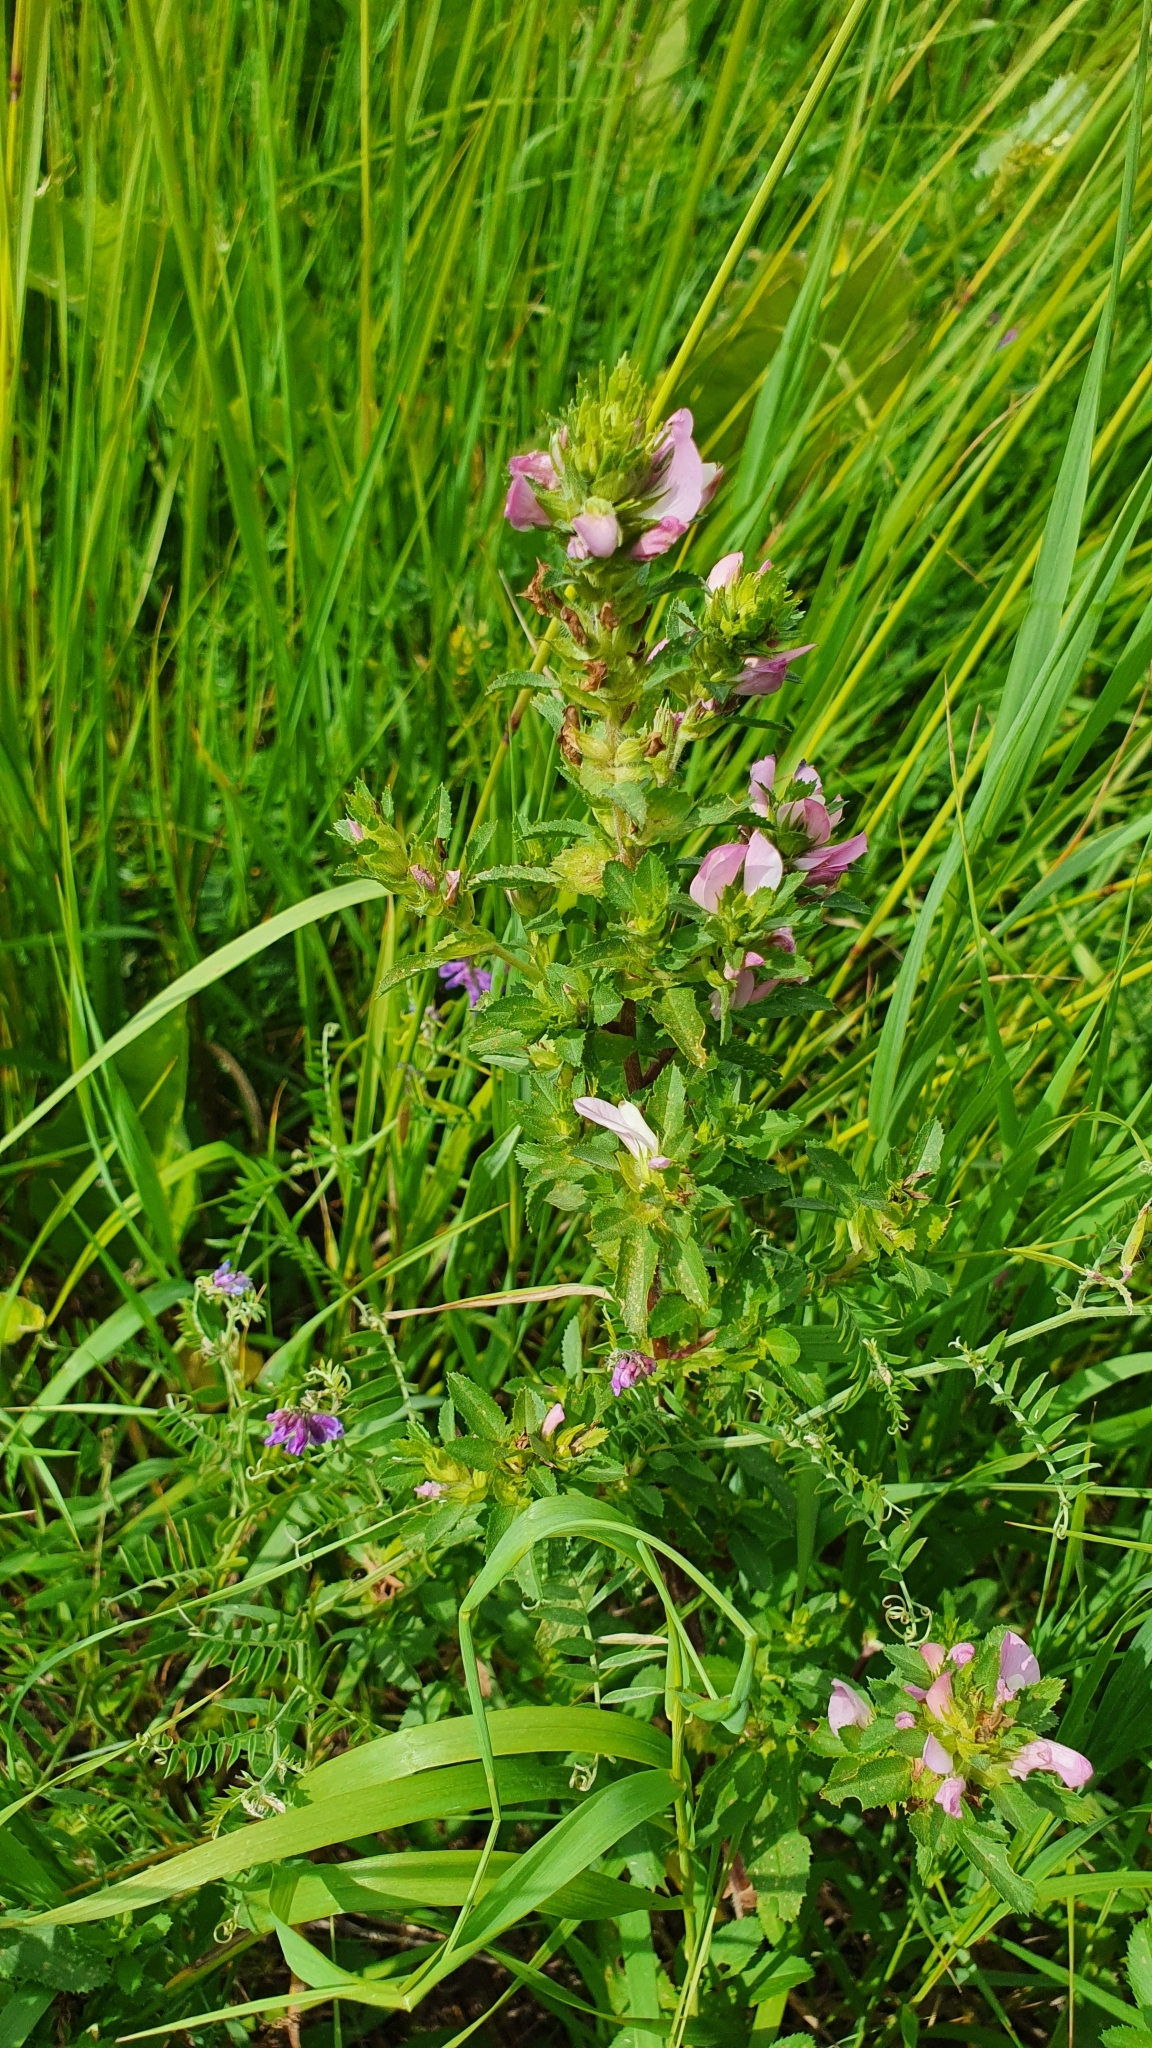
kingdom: Plantae
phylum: Tracheophyta
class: Magnoliopsida
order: Fabales
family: Fabaceae
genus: Ononis
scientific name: Ononis arvensis
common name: Field restharrow
